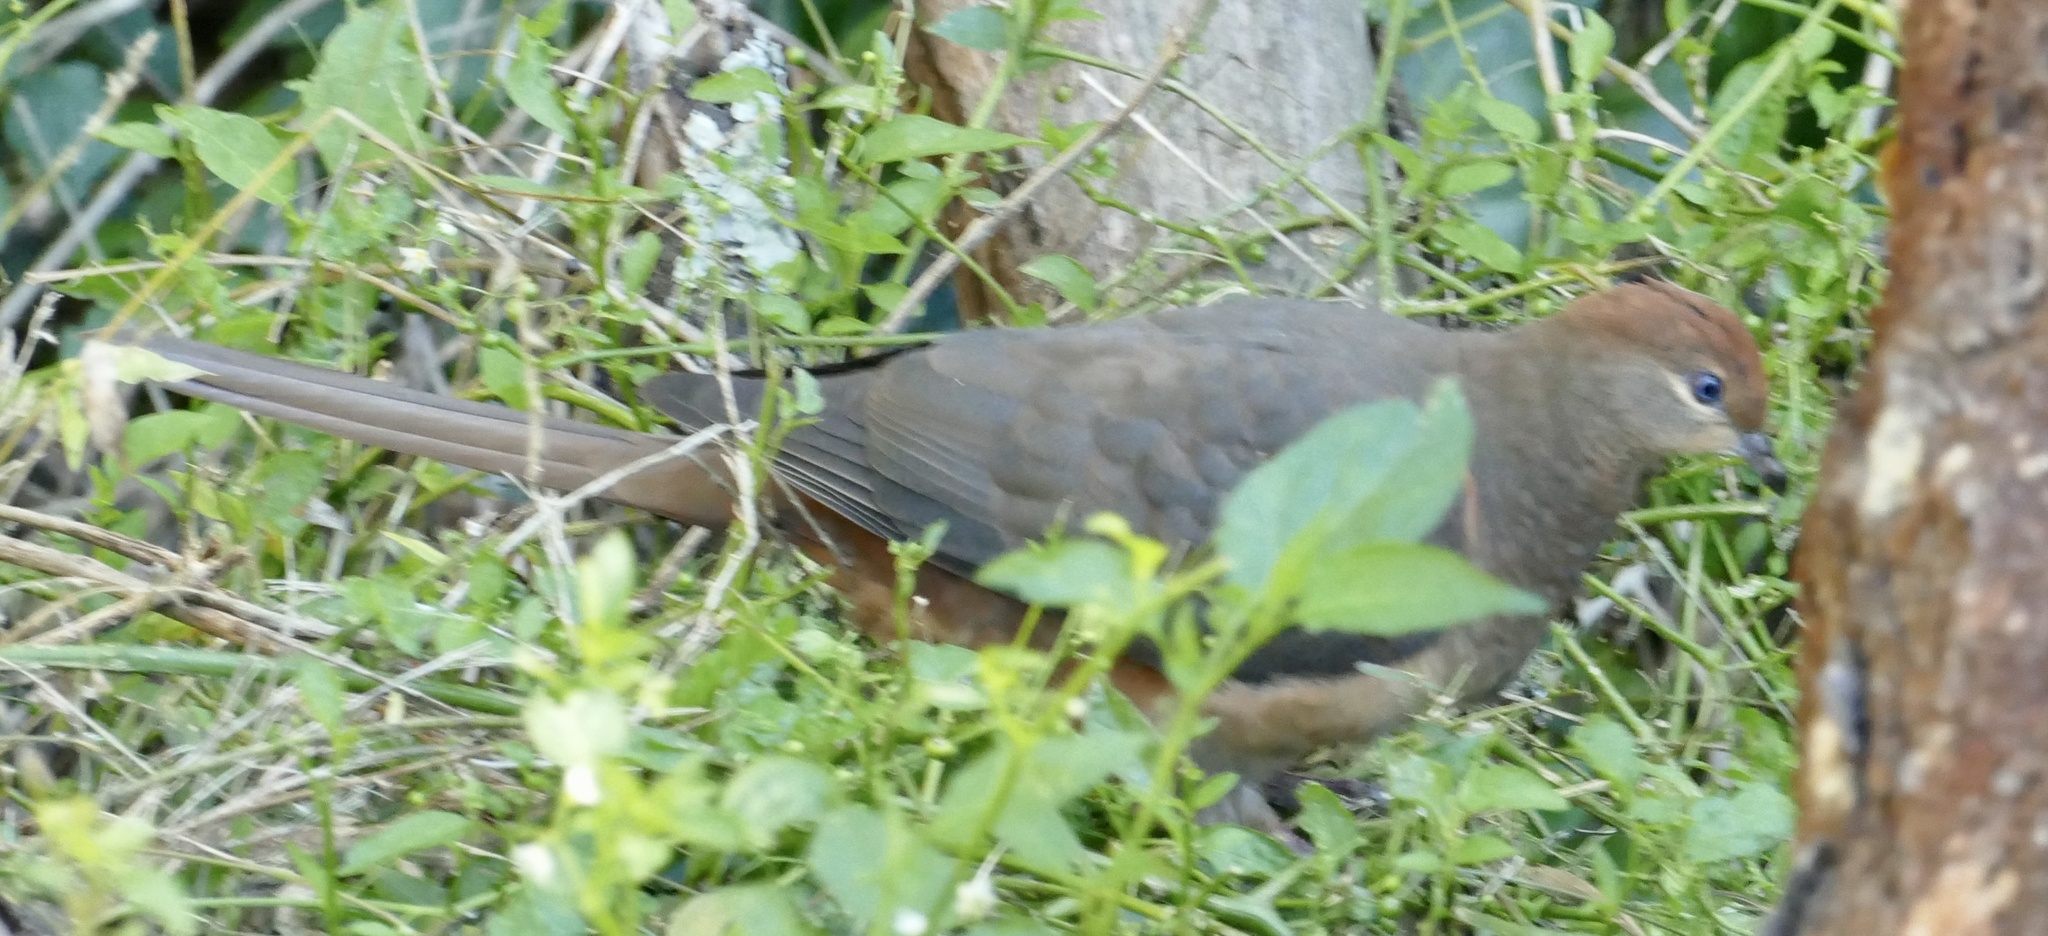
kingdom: Animalia
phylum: Chordata
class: Aves
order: Columbiformes
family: Columbidae
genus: Macropygia
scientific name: Macropygia phasianella
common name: Brown cuckoo-dove
